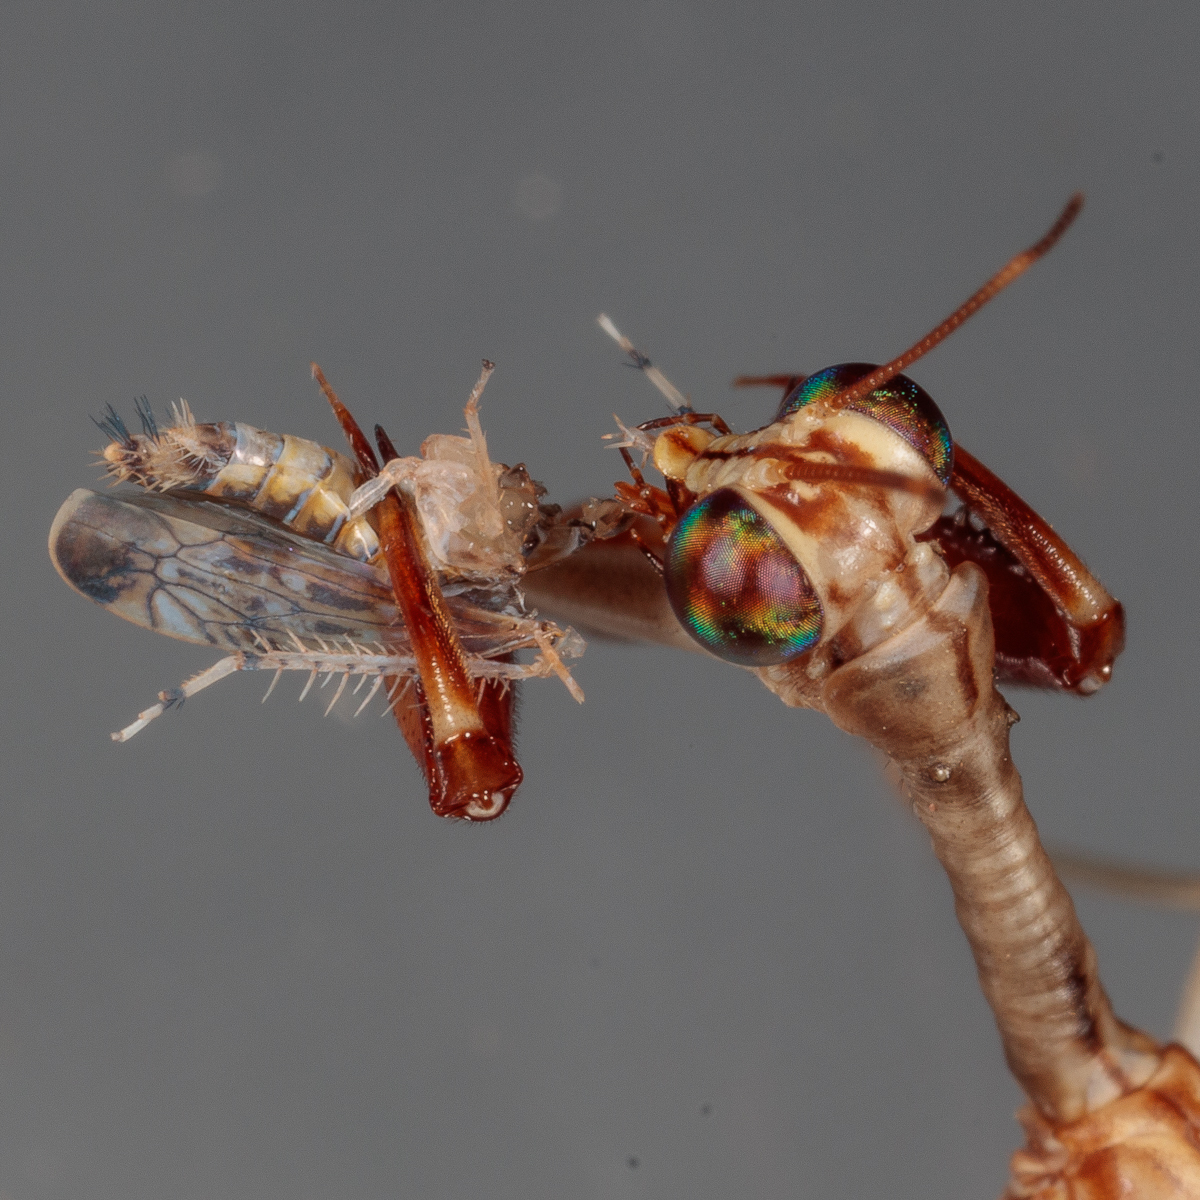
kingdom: Animalia
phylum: Arthropoda
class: Insecta
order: Neuroptera
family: Mantispidae
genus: Dicromantispa
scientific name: Dicromantispa interrupta
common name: Four-spotted mantidfly
